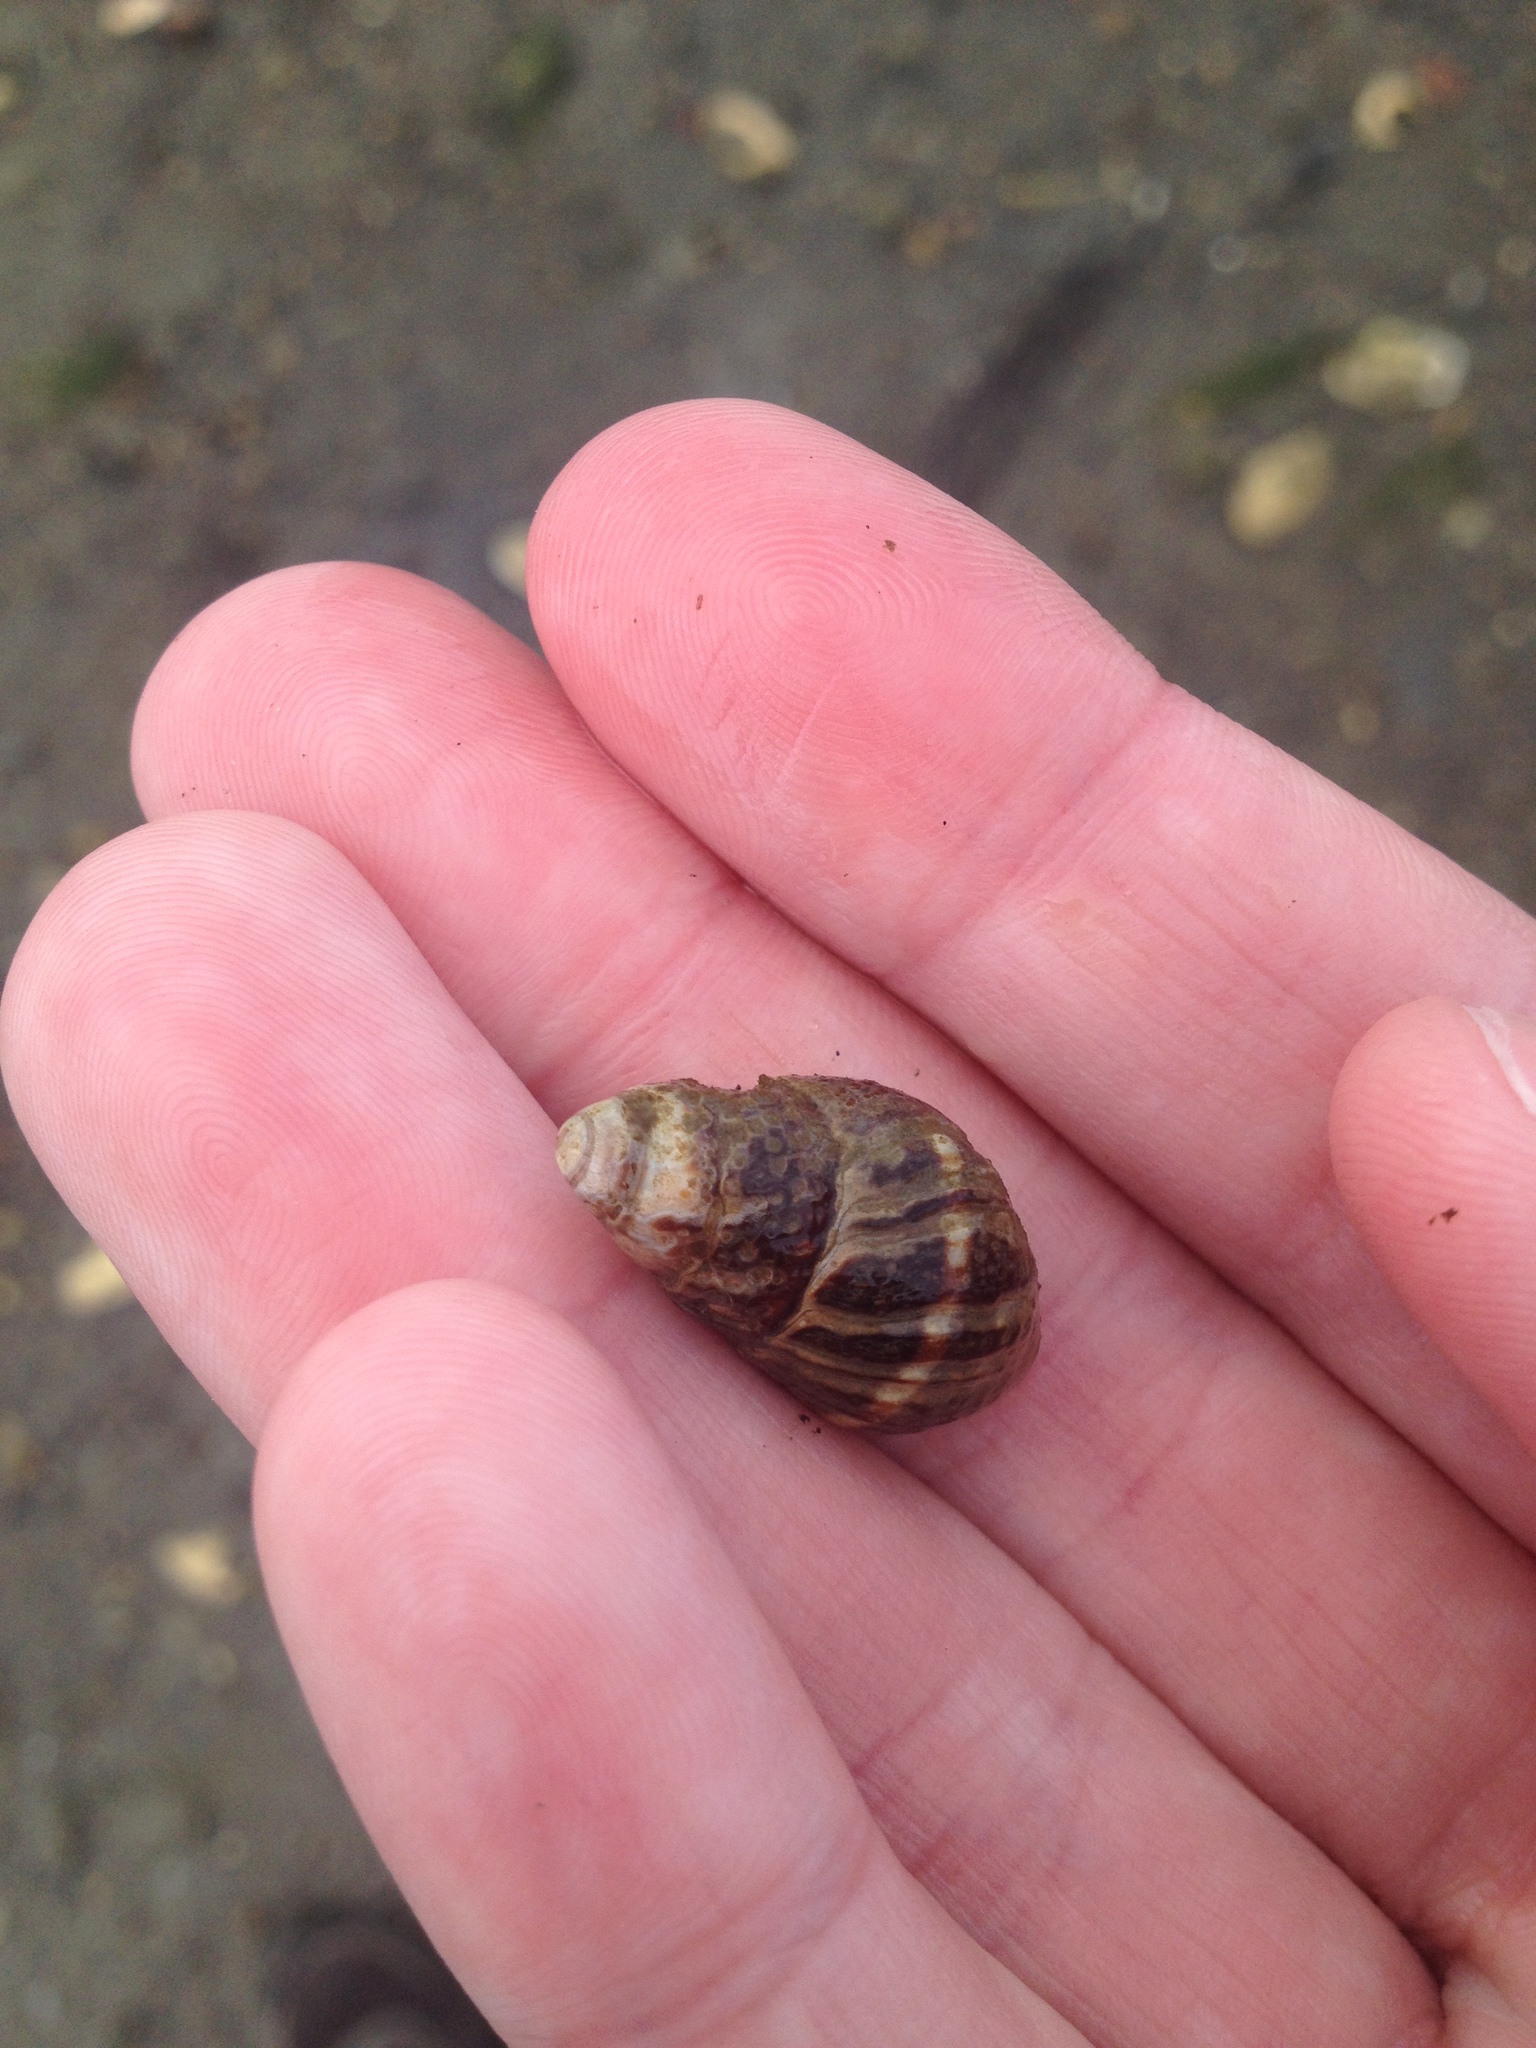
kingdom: Animalia
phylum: Mollusca
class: Gastropoda
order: Neogastropoda
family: Nassariidae
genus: Ilyanassa
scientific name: Ilyanassa obsoleta
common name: Eastern mudsnail
